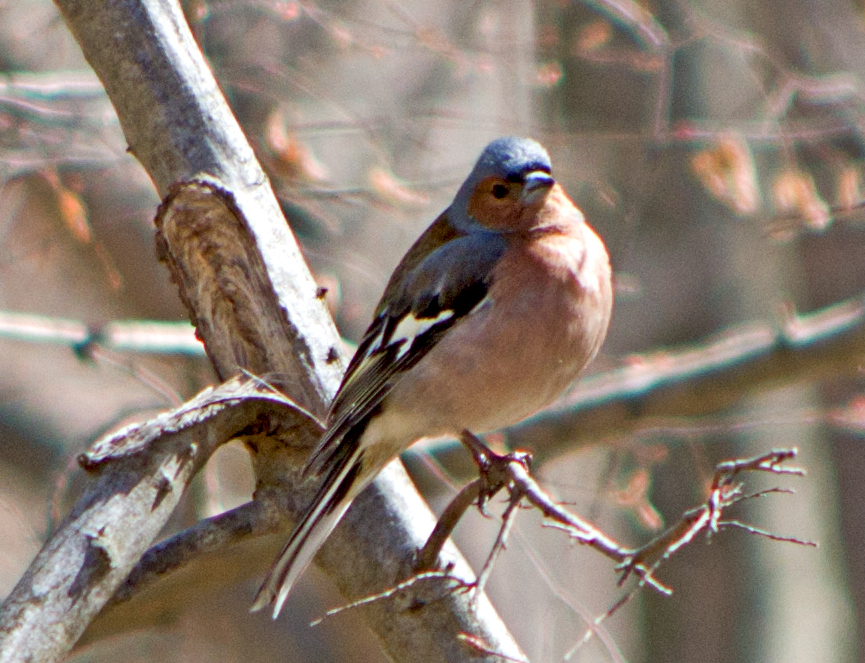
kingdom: Animalia
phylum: Chordata
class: Aves
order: Passeriformes
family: Fringillidae
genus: Fringilla
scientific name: Fringilla coelebs
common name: Common chaffinch
